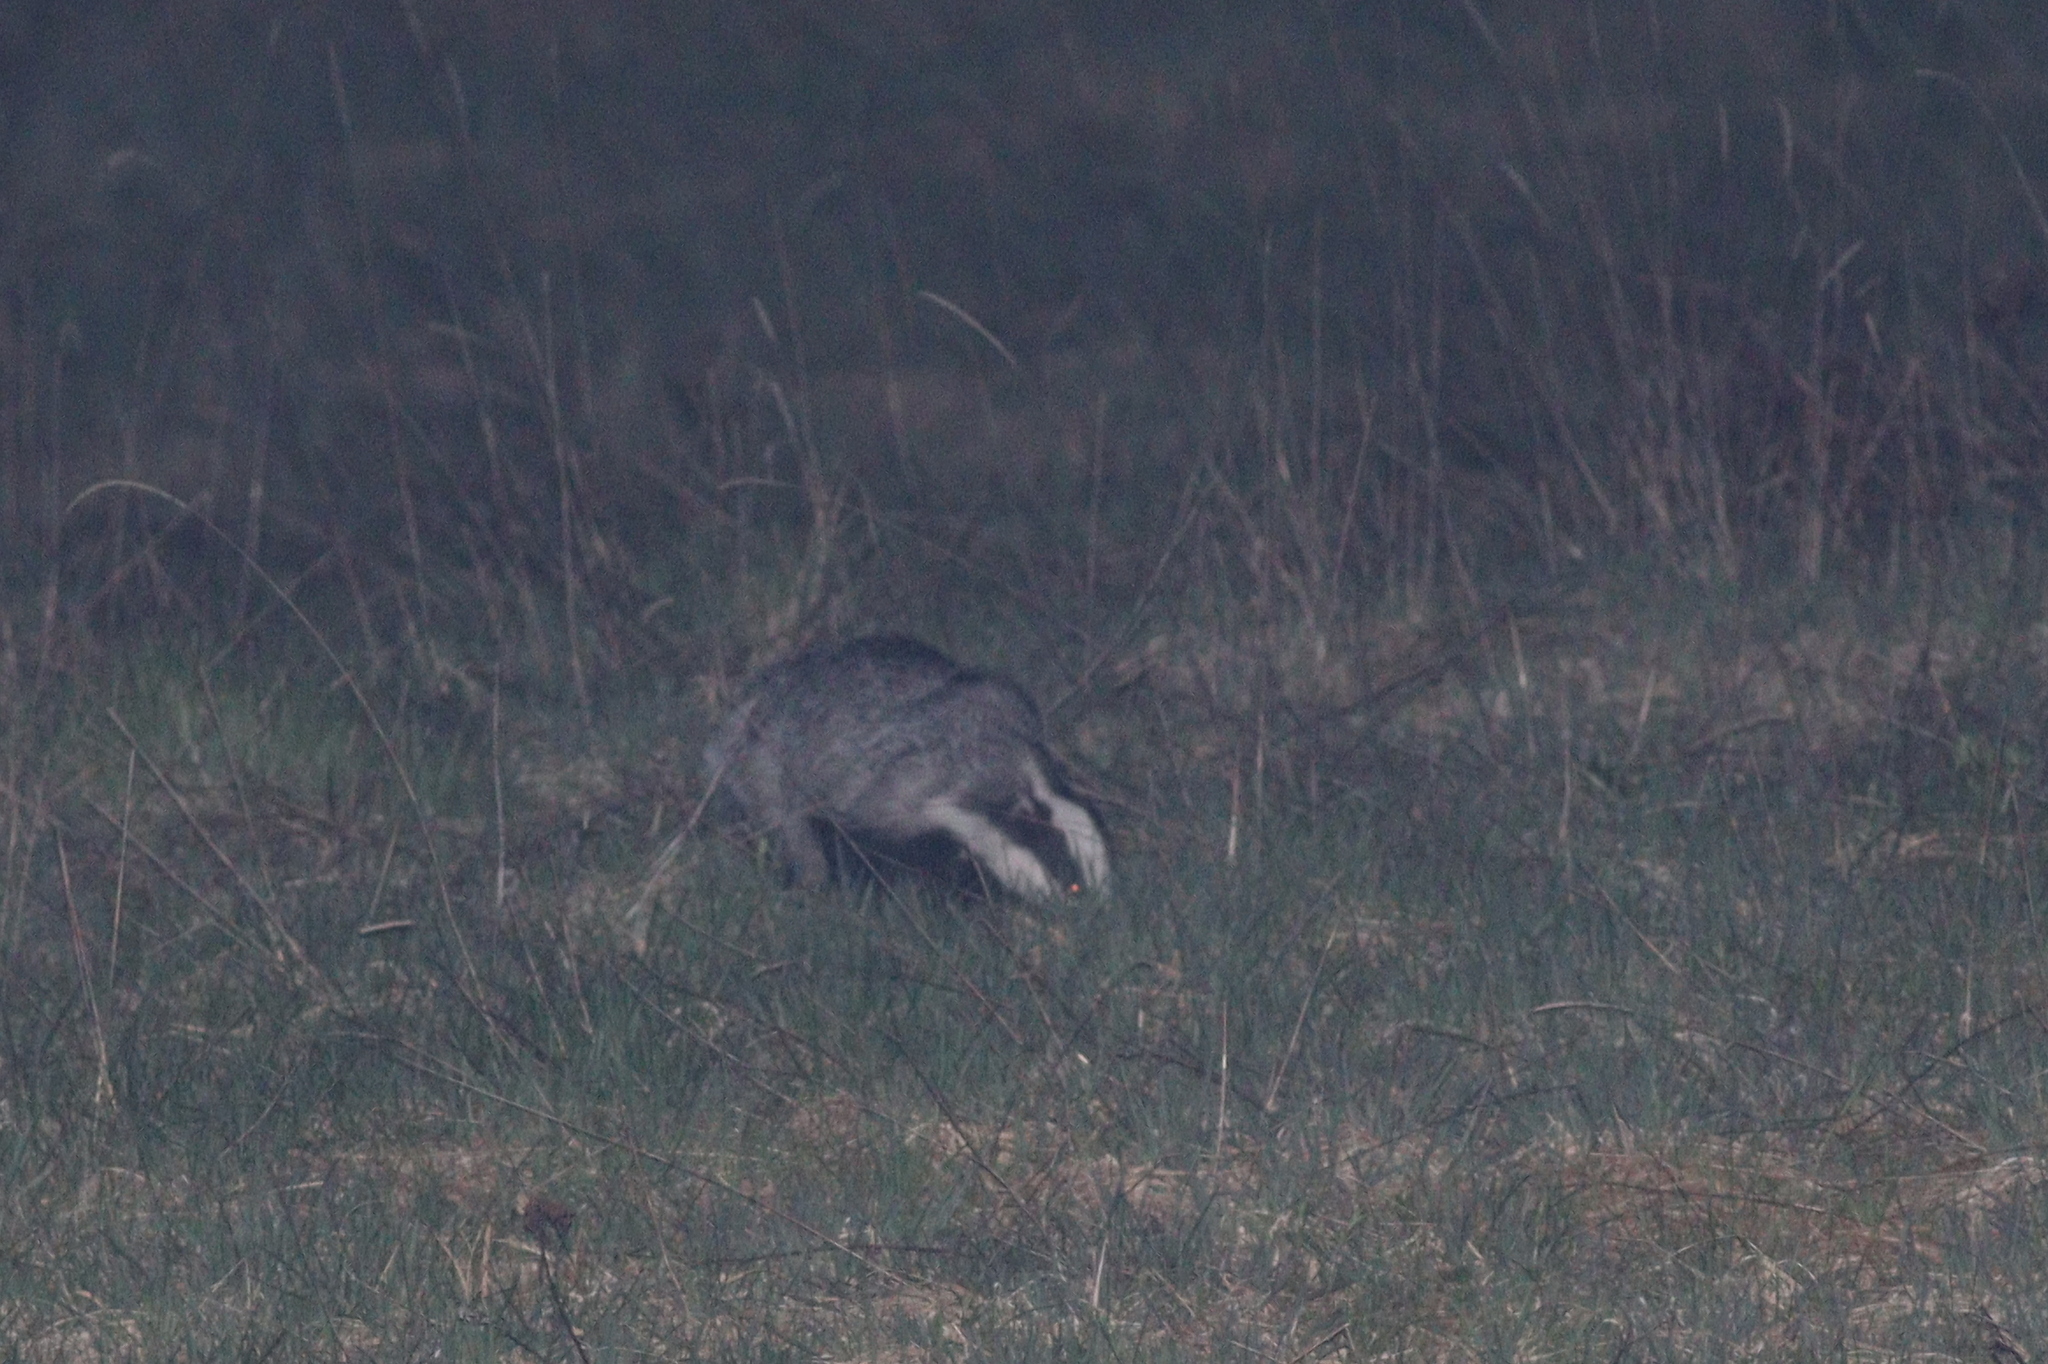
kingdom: Animalia
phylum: Chordata
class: Mammalia
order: Carnivora
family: Mustelidae
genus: Meles
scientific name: Meles meles
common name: Eurasian badger
